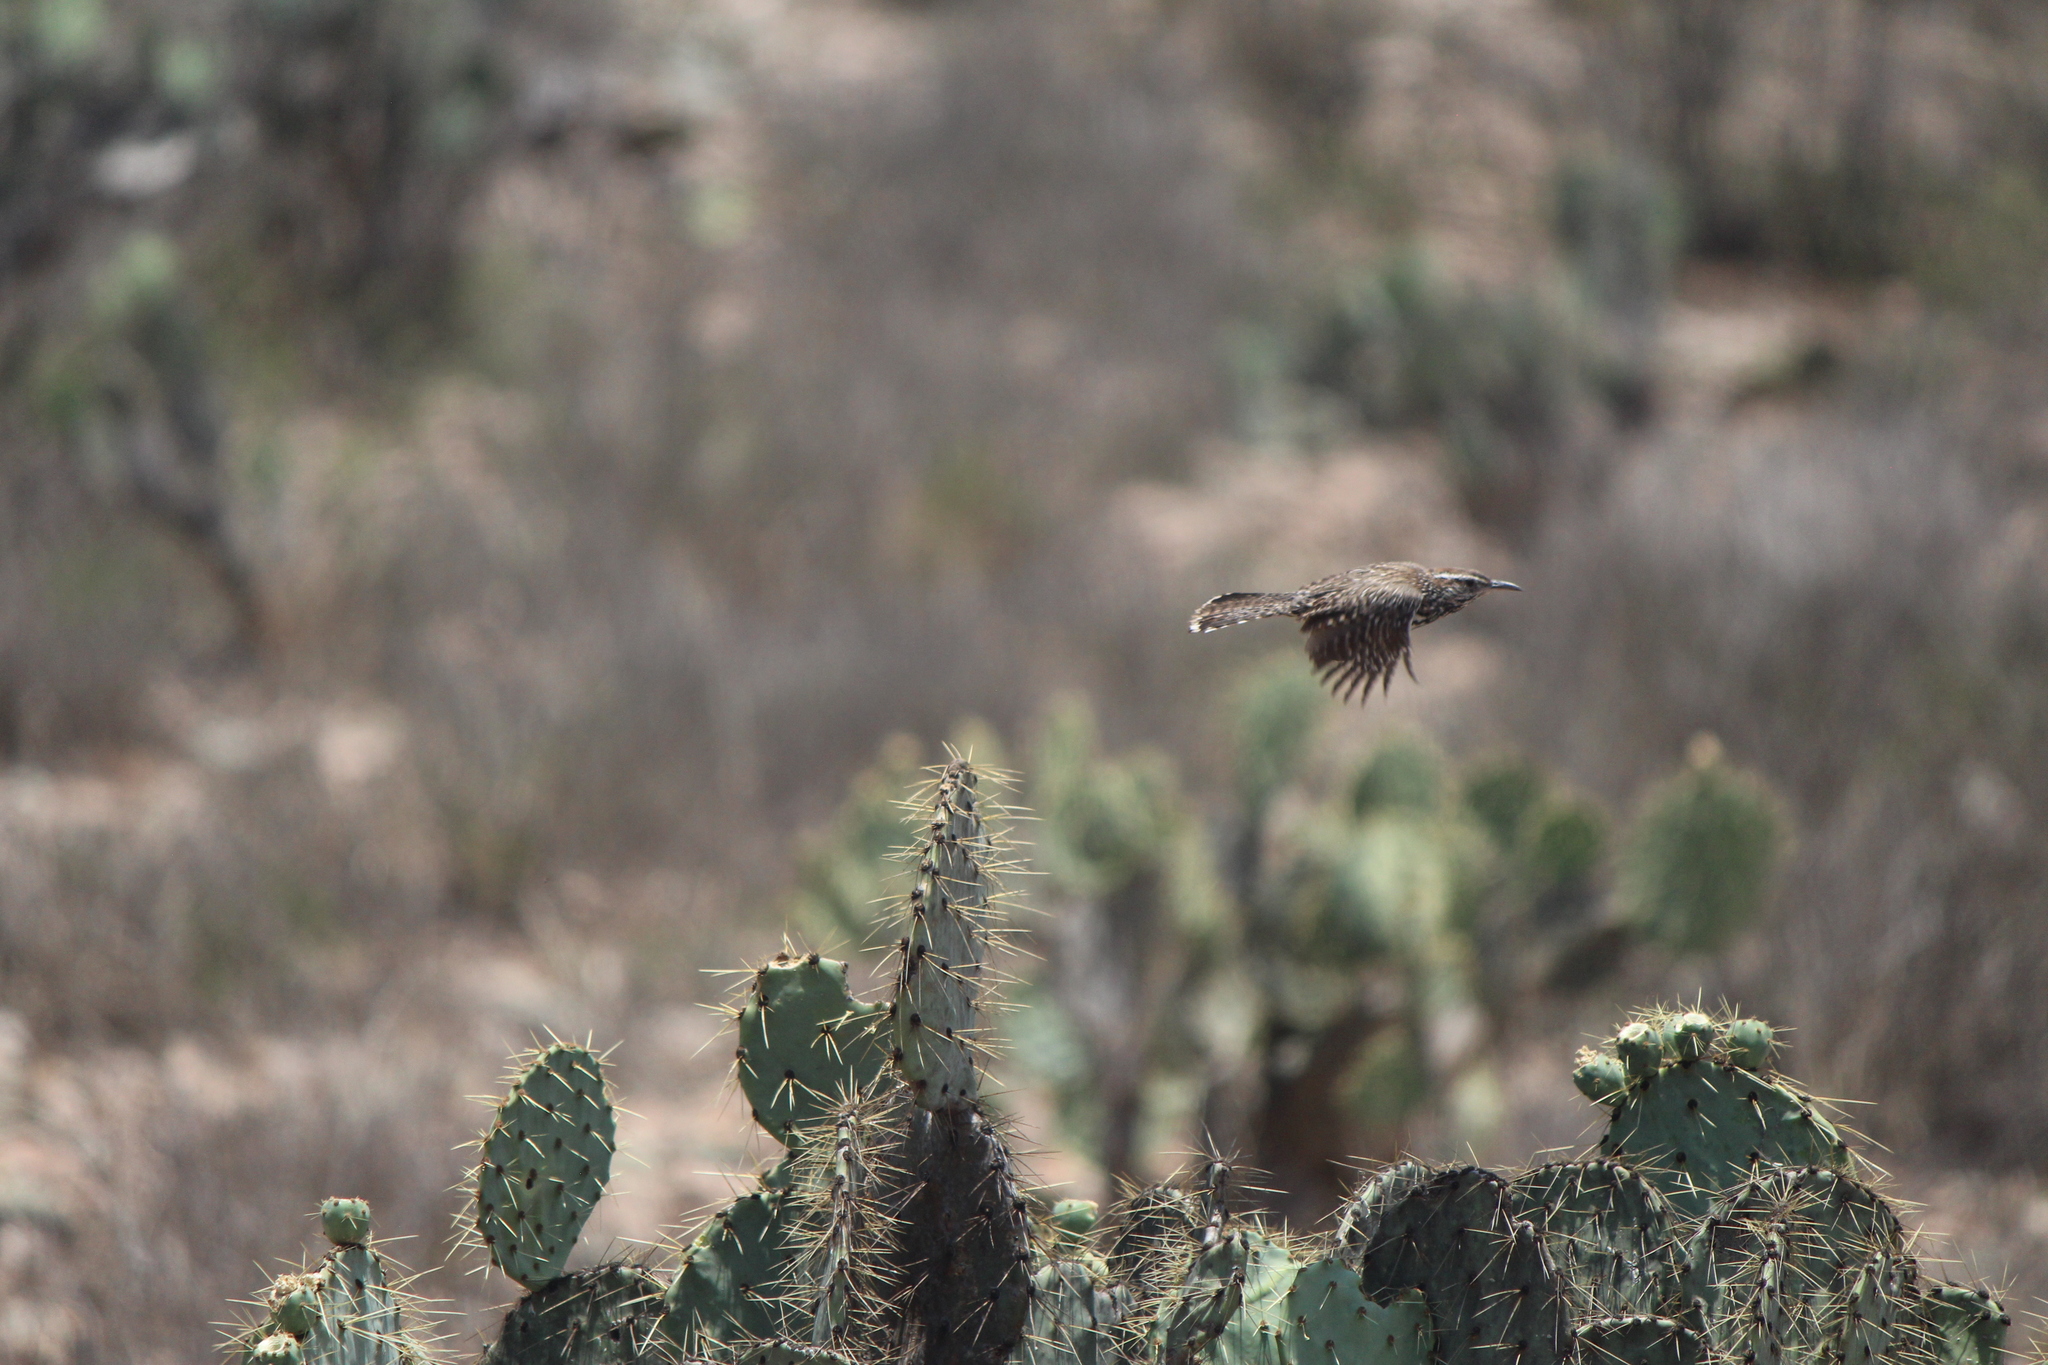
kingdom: Animalia
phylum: Chordata
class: Aves
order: Passeriformes
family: Troglodytidae
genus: Campylorhynchus
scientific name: Campylorhynchus brunneicapillus
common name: Cactus wren
